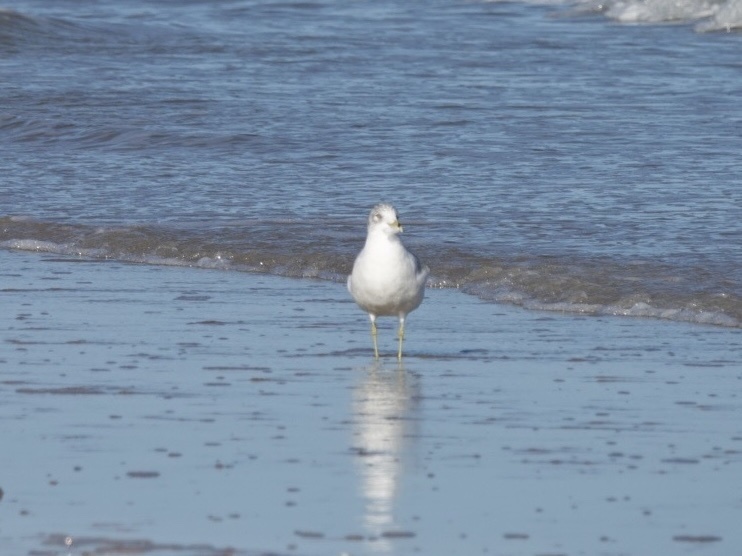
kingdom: Animalia
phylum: Chordata
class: Aves
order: Charadriiformes
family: Laridae
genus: Larus
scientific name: Larus delawarensis
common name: Ring-billed gull
